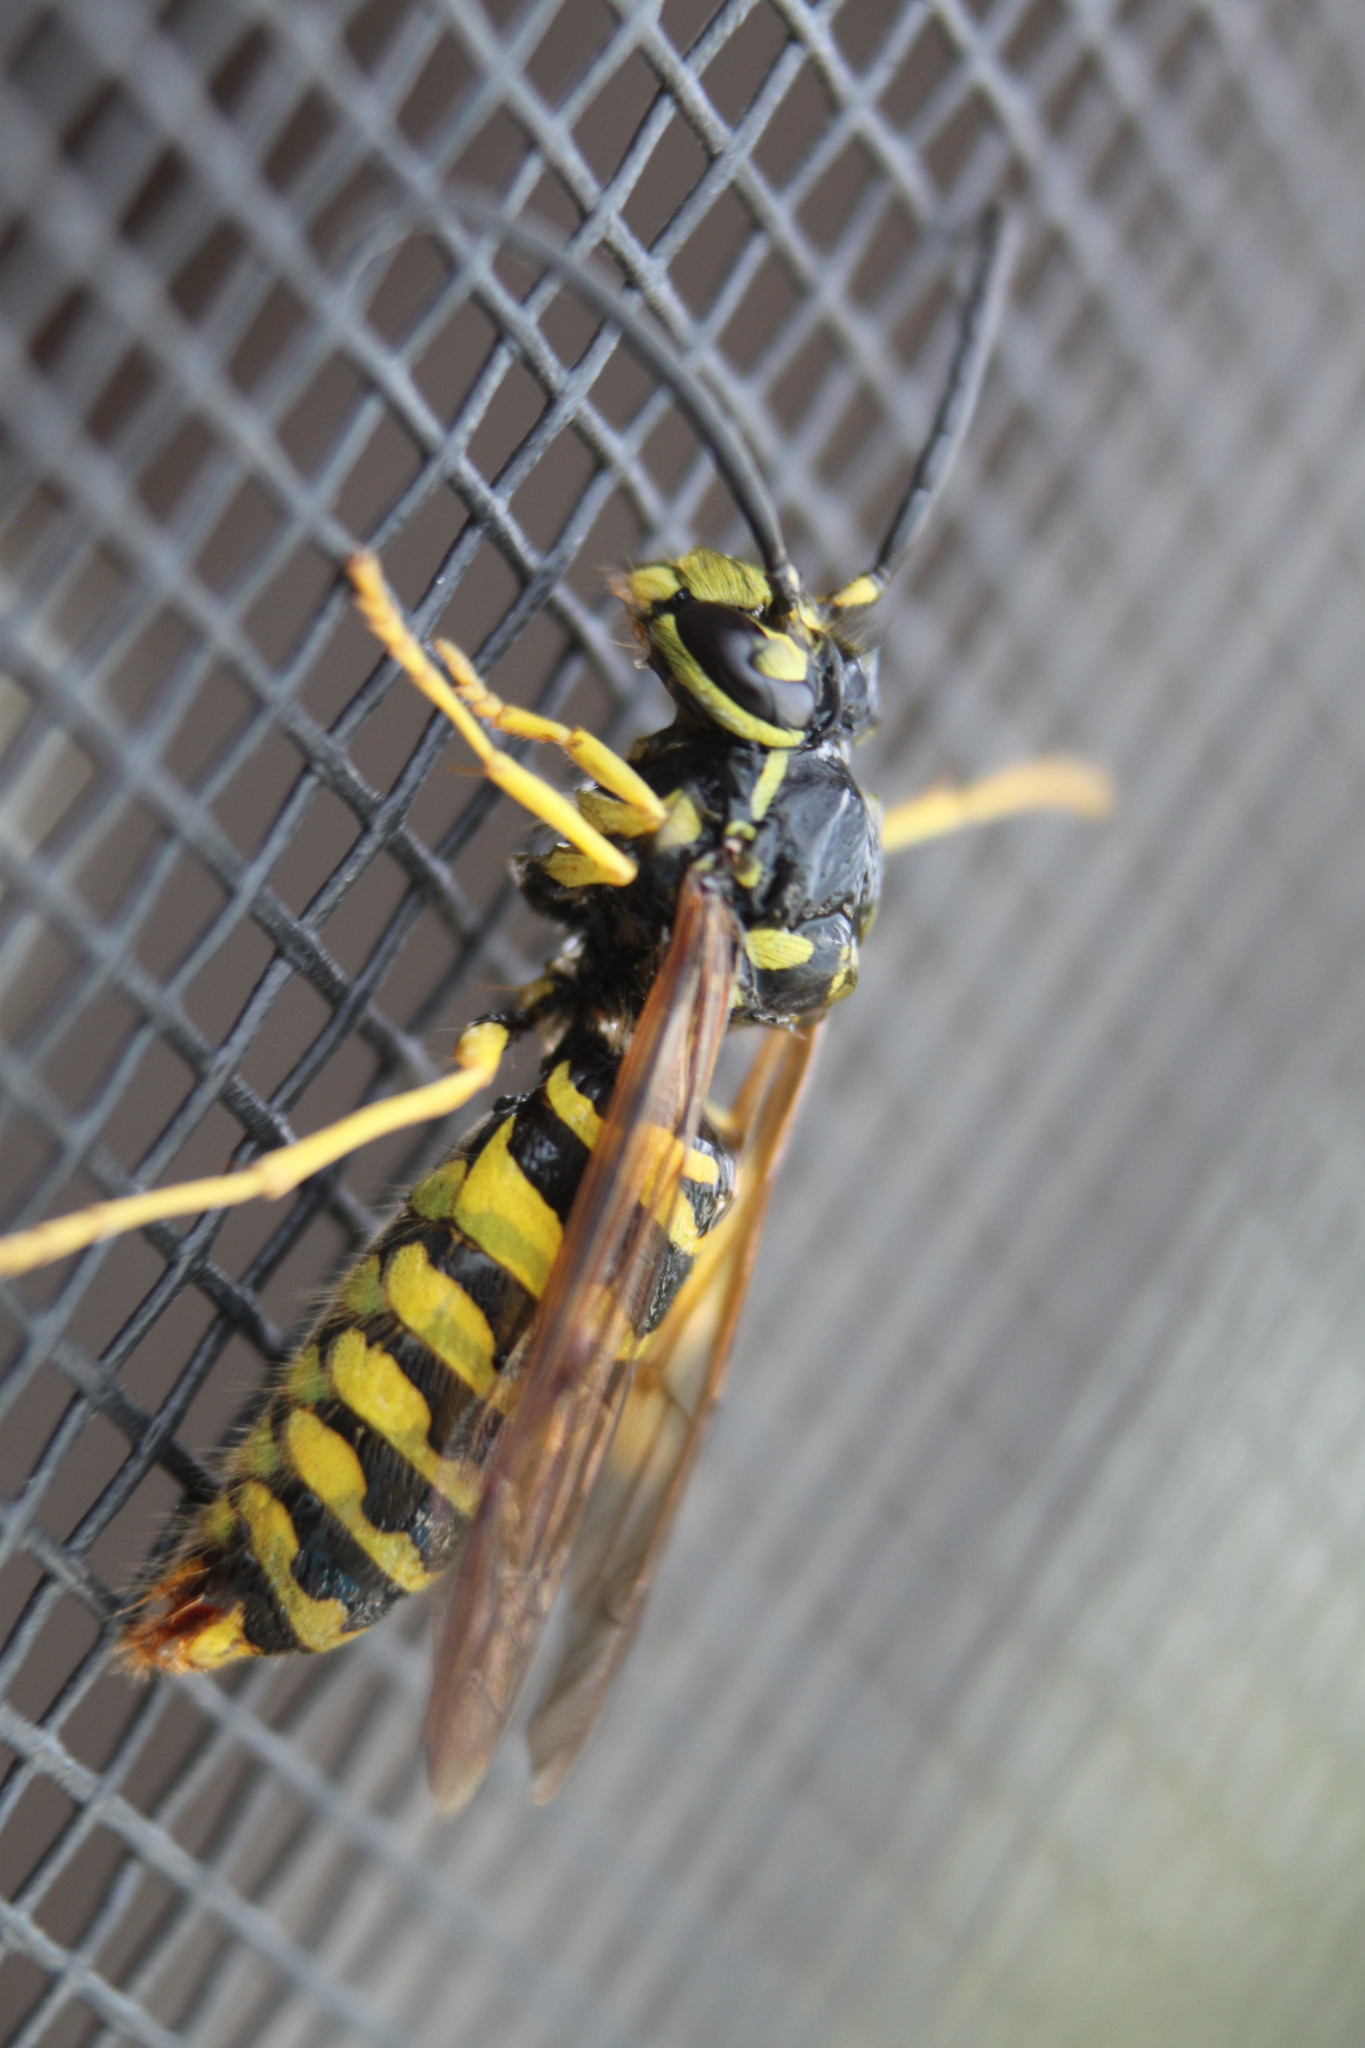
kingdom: Animalia
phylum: Arthropoda
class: Insecta
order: Hymenoptera
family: Vespidae
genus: Vespula
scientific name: Vespula maculifrons
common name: Eastern yellowjacket
